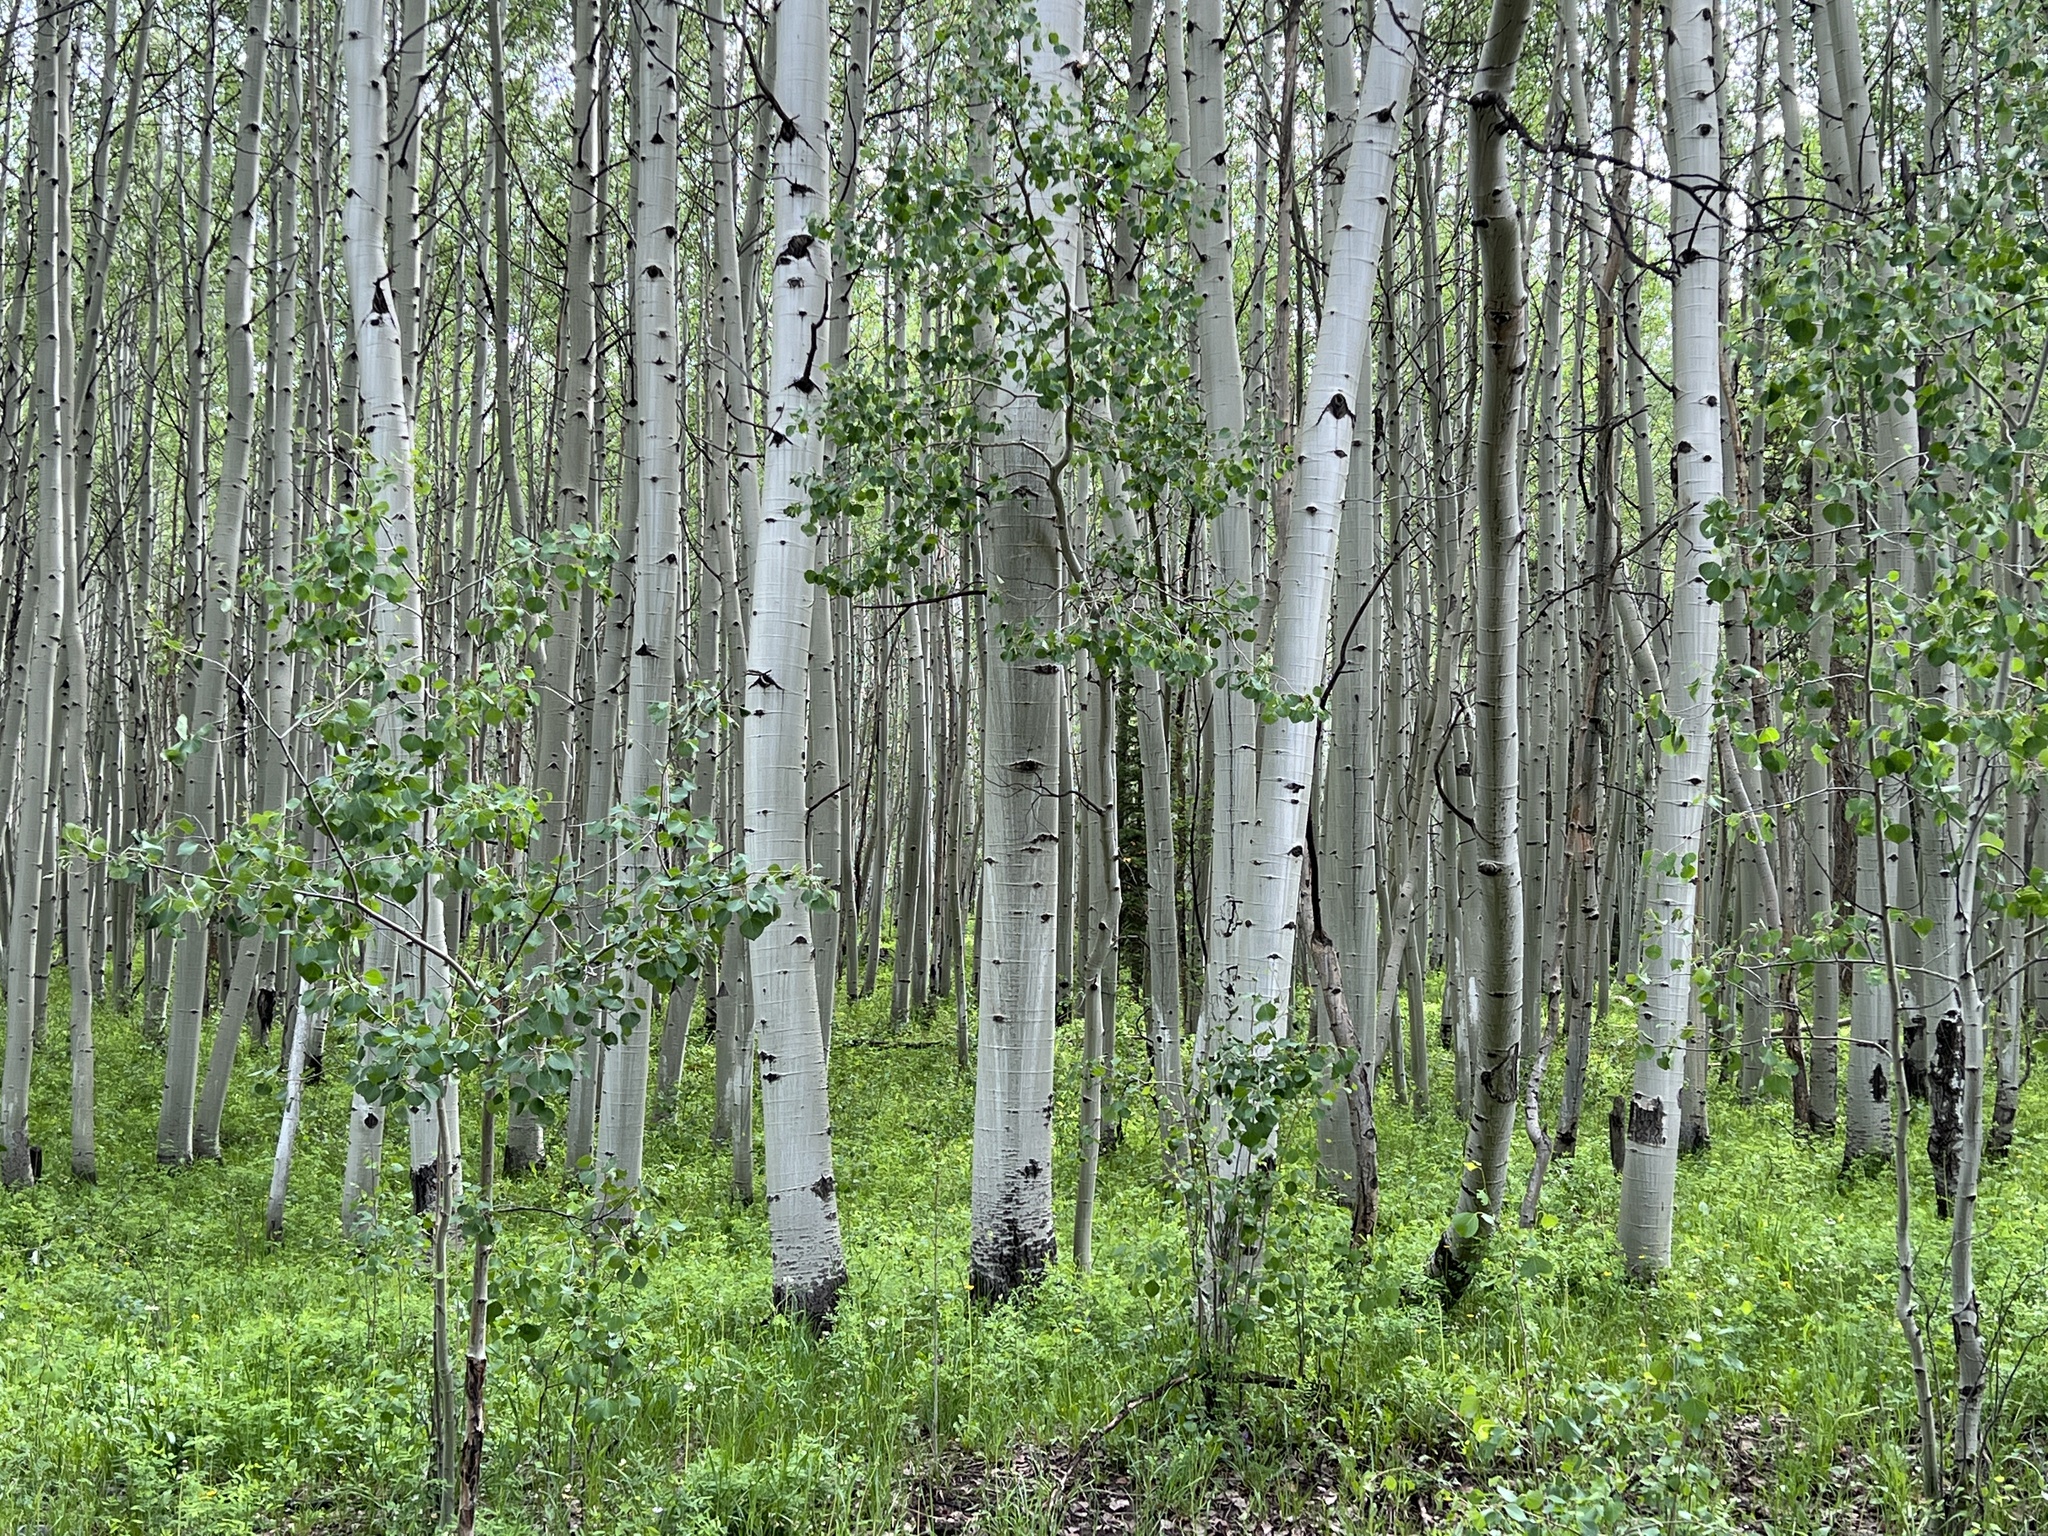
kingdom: Plantae
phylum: Tracheophyta
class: Magnoliopsida
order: Malpighiales
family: Salicaceae
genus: Populus
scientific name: Populus tremuloides
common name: Quaking aspen
